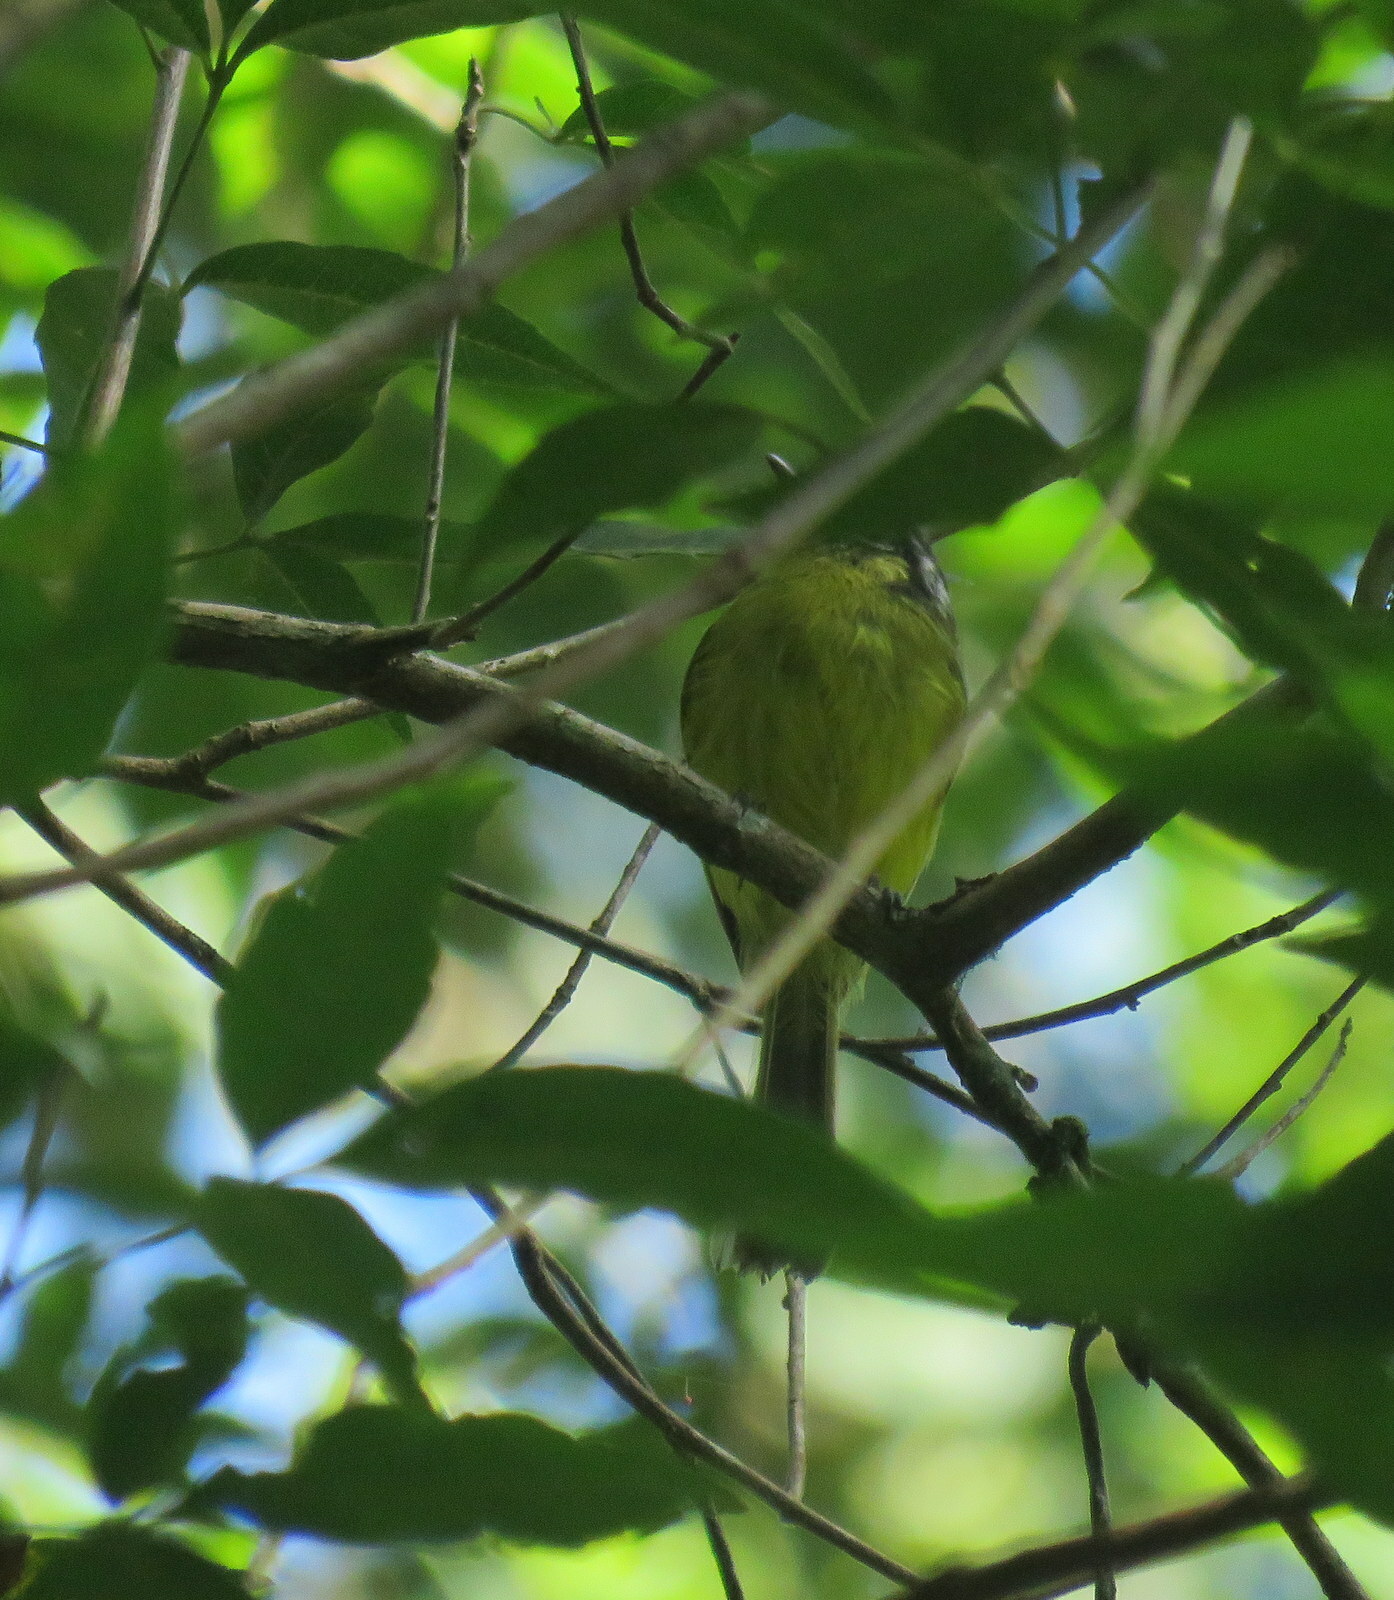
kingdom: Animalia
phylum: Chordata
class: Aves
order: Passeriformes
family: Tyrannidae
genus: Phylloscartes
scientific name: Phylloscartes eximius
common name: Southern bristle-tyrant
